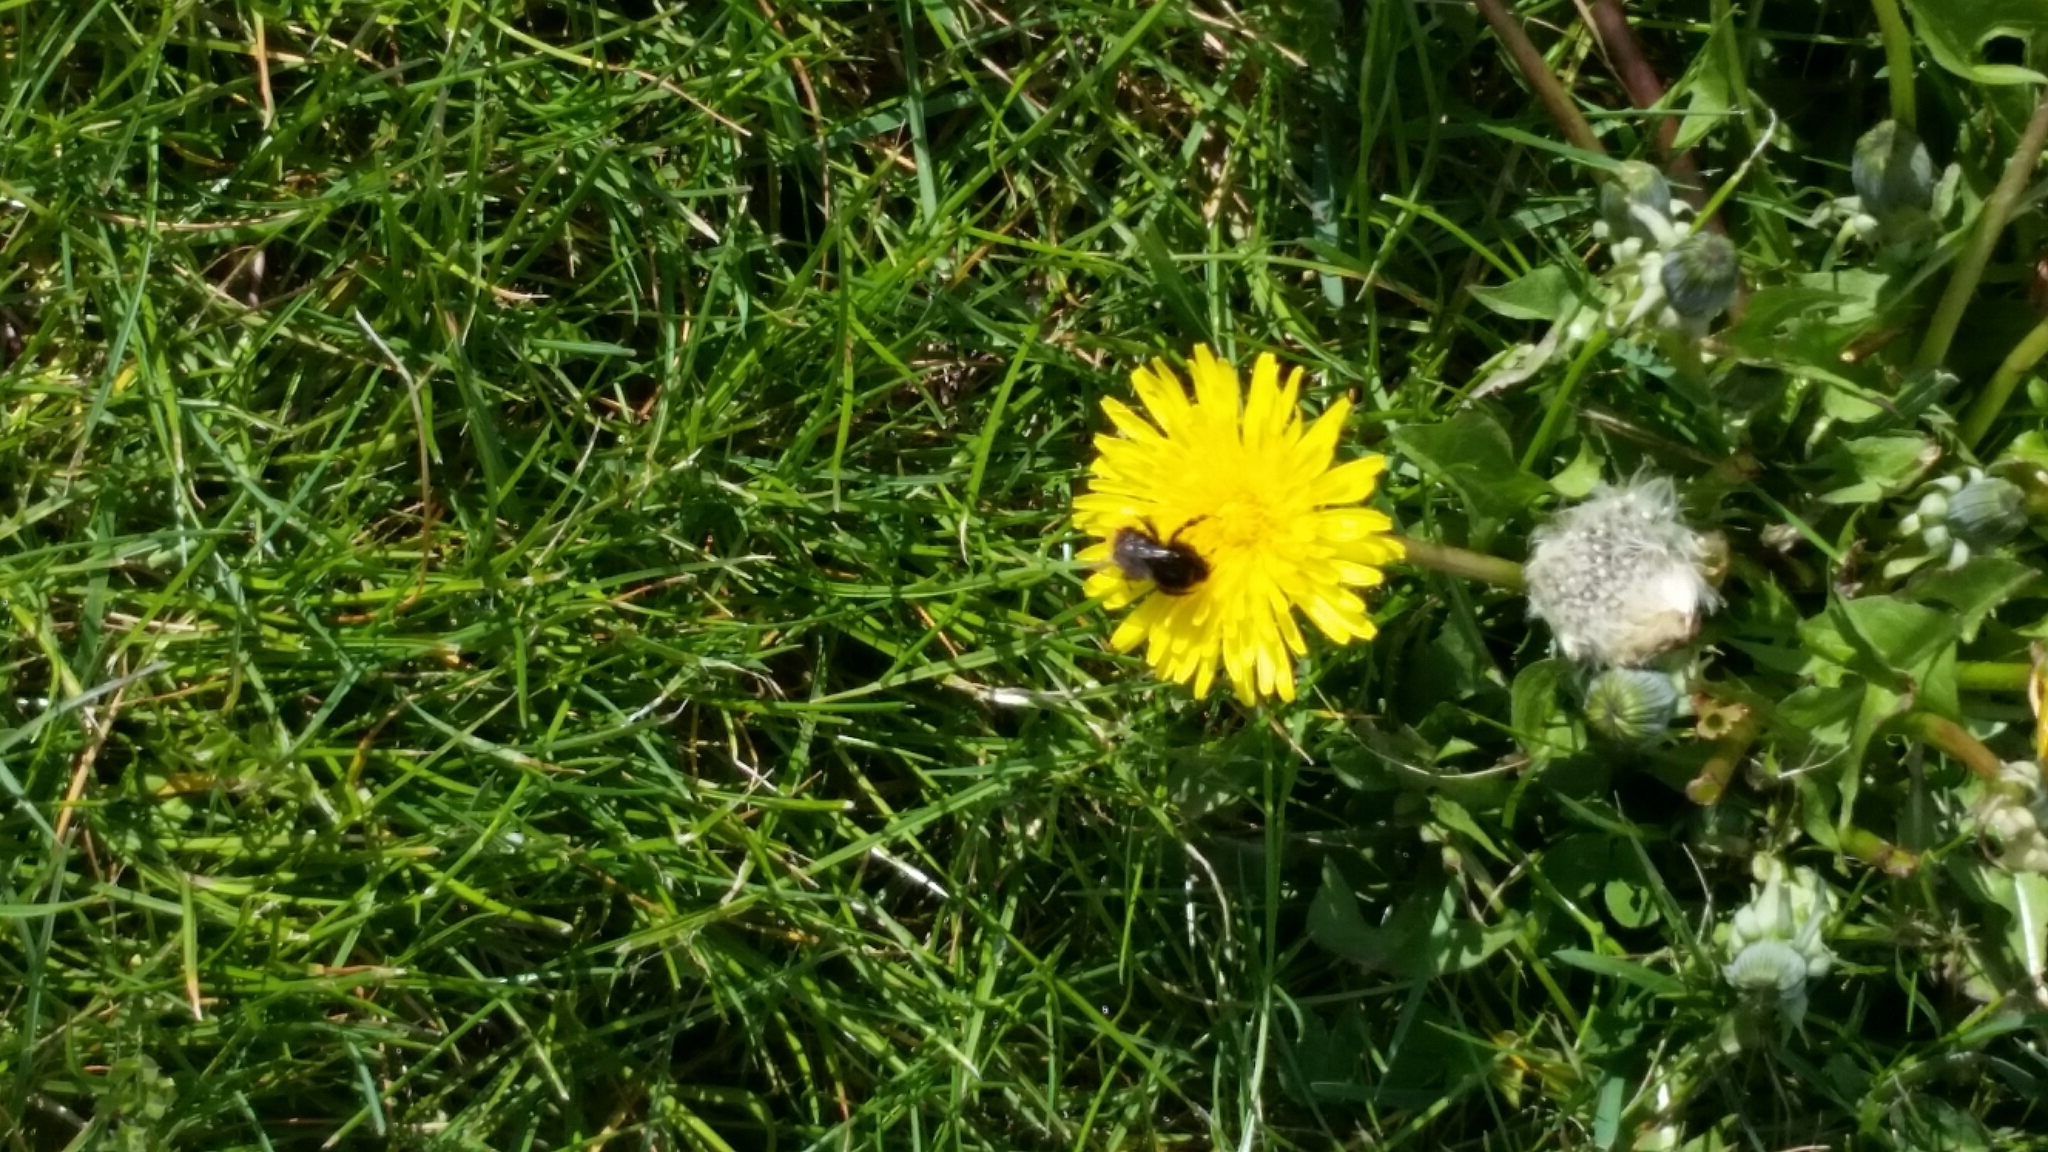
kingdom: Animalia
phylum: Arthropoda
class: Insecta
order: Hymenoptera
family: Apidae
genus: Bombus
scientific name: Bombus lapidarius
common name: Large red-tailed humble-bee
